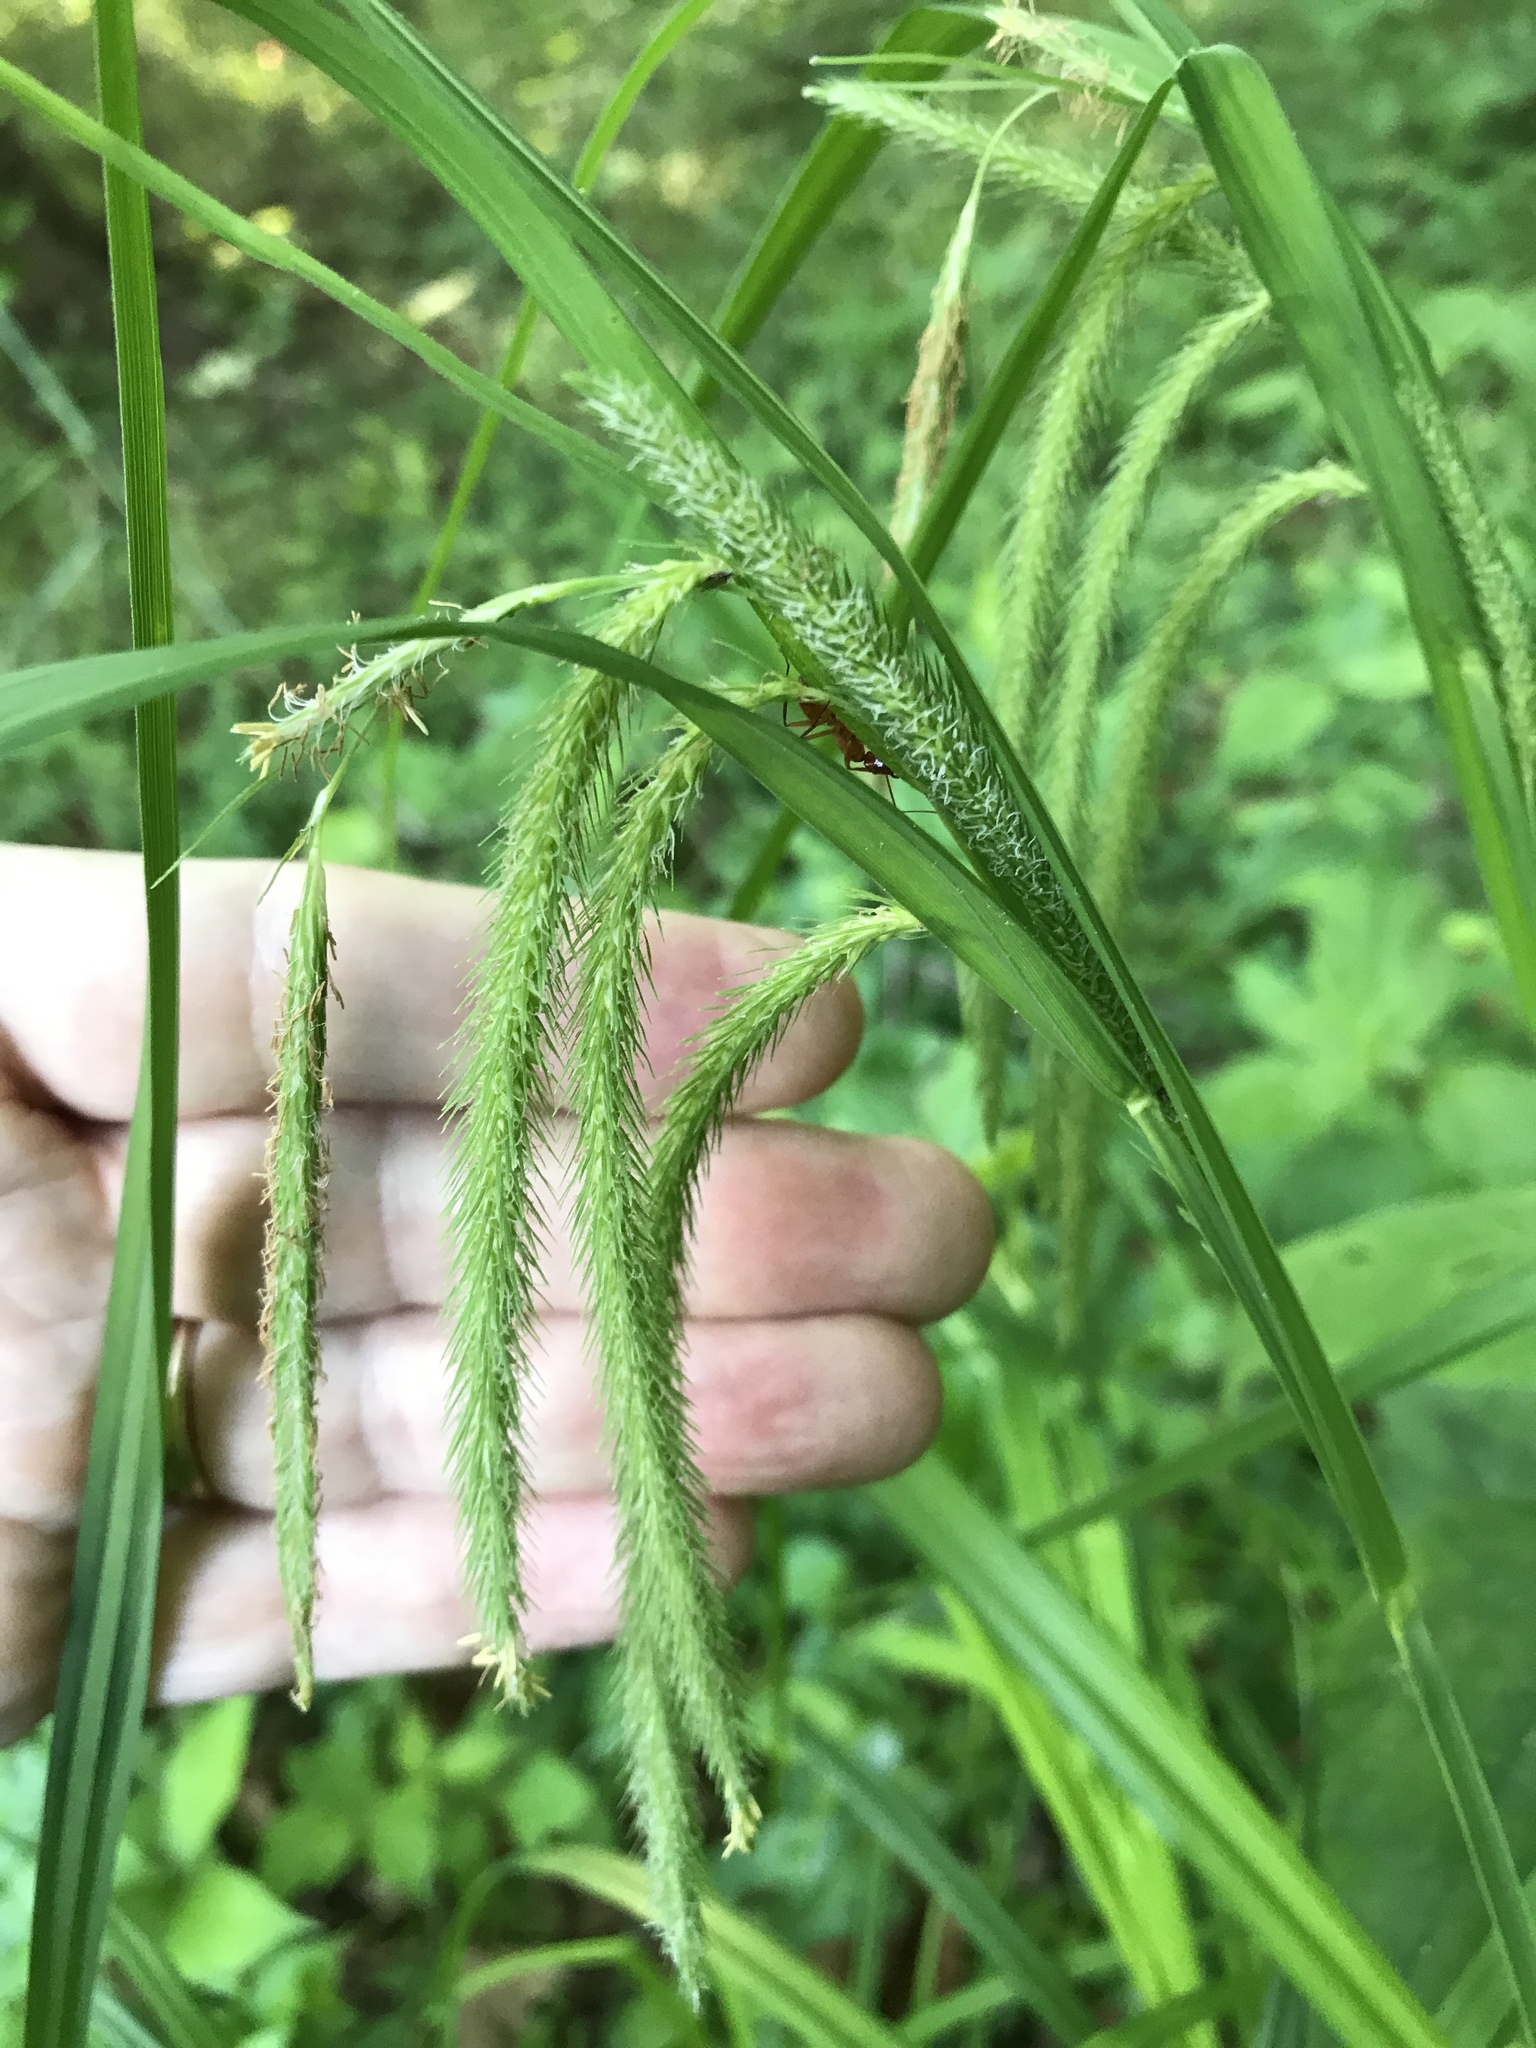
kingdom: Plantae
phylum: Tracheophyta
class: Liliopsida
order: Poales
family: Cyperaceae
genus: Carex
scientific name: Carex crinita
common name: Fringed sedge
